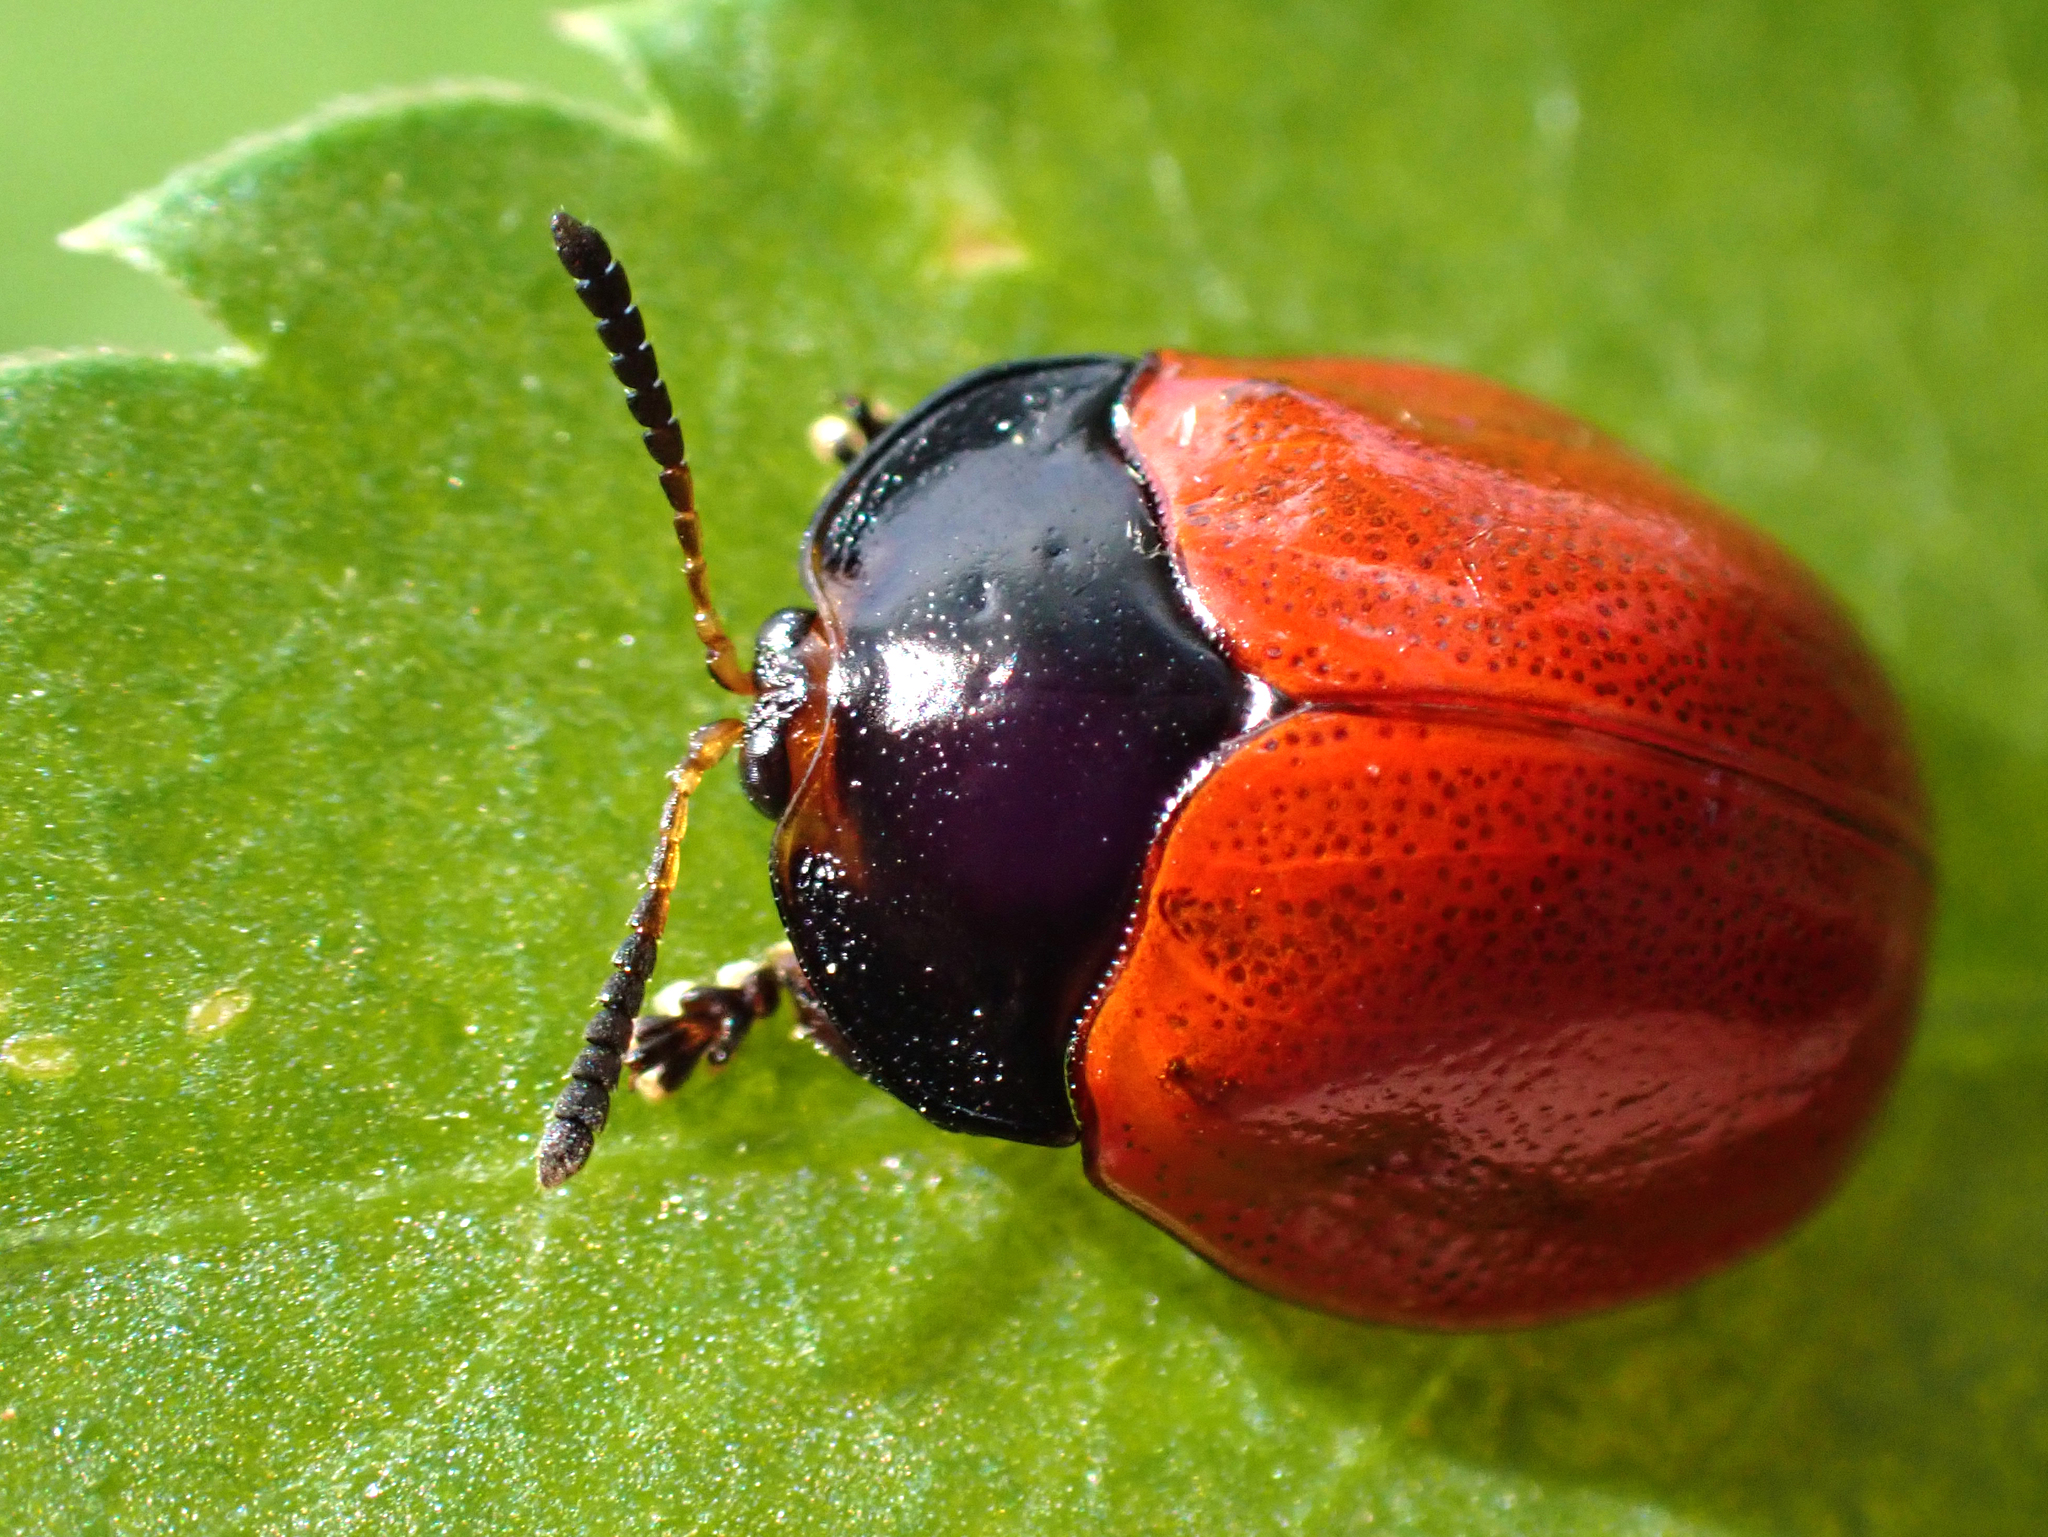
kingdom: Animalia
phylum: Arthropoda
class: Insecta
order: Coleoptera
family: Chrysomelidae
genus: Chelymorpha
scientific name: Chelymorpha cribraria
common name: Tortoise beetle
